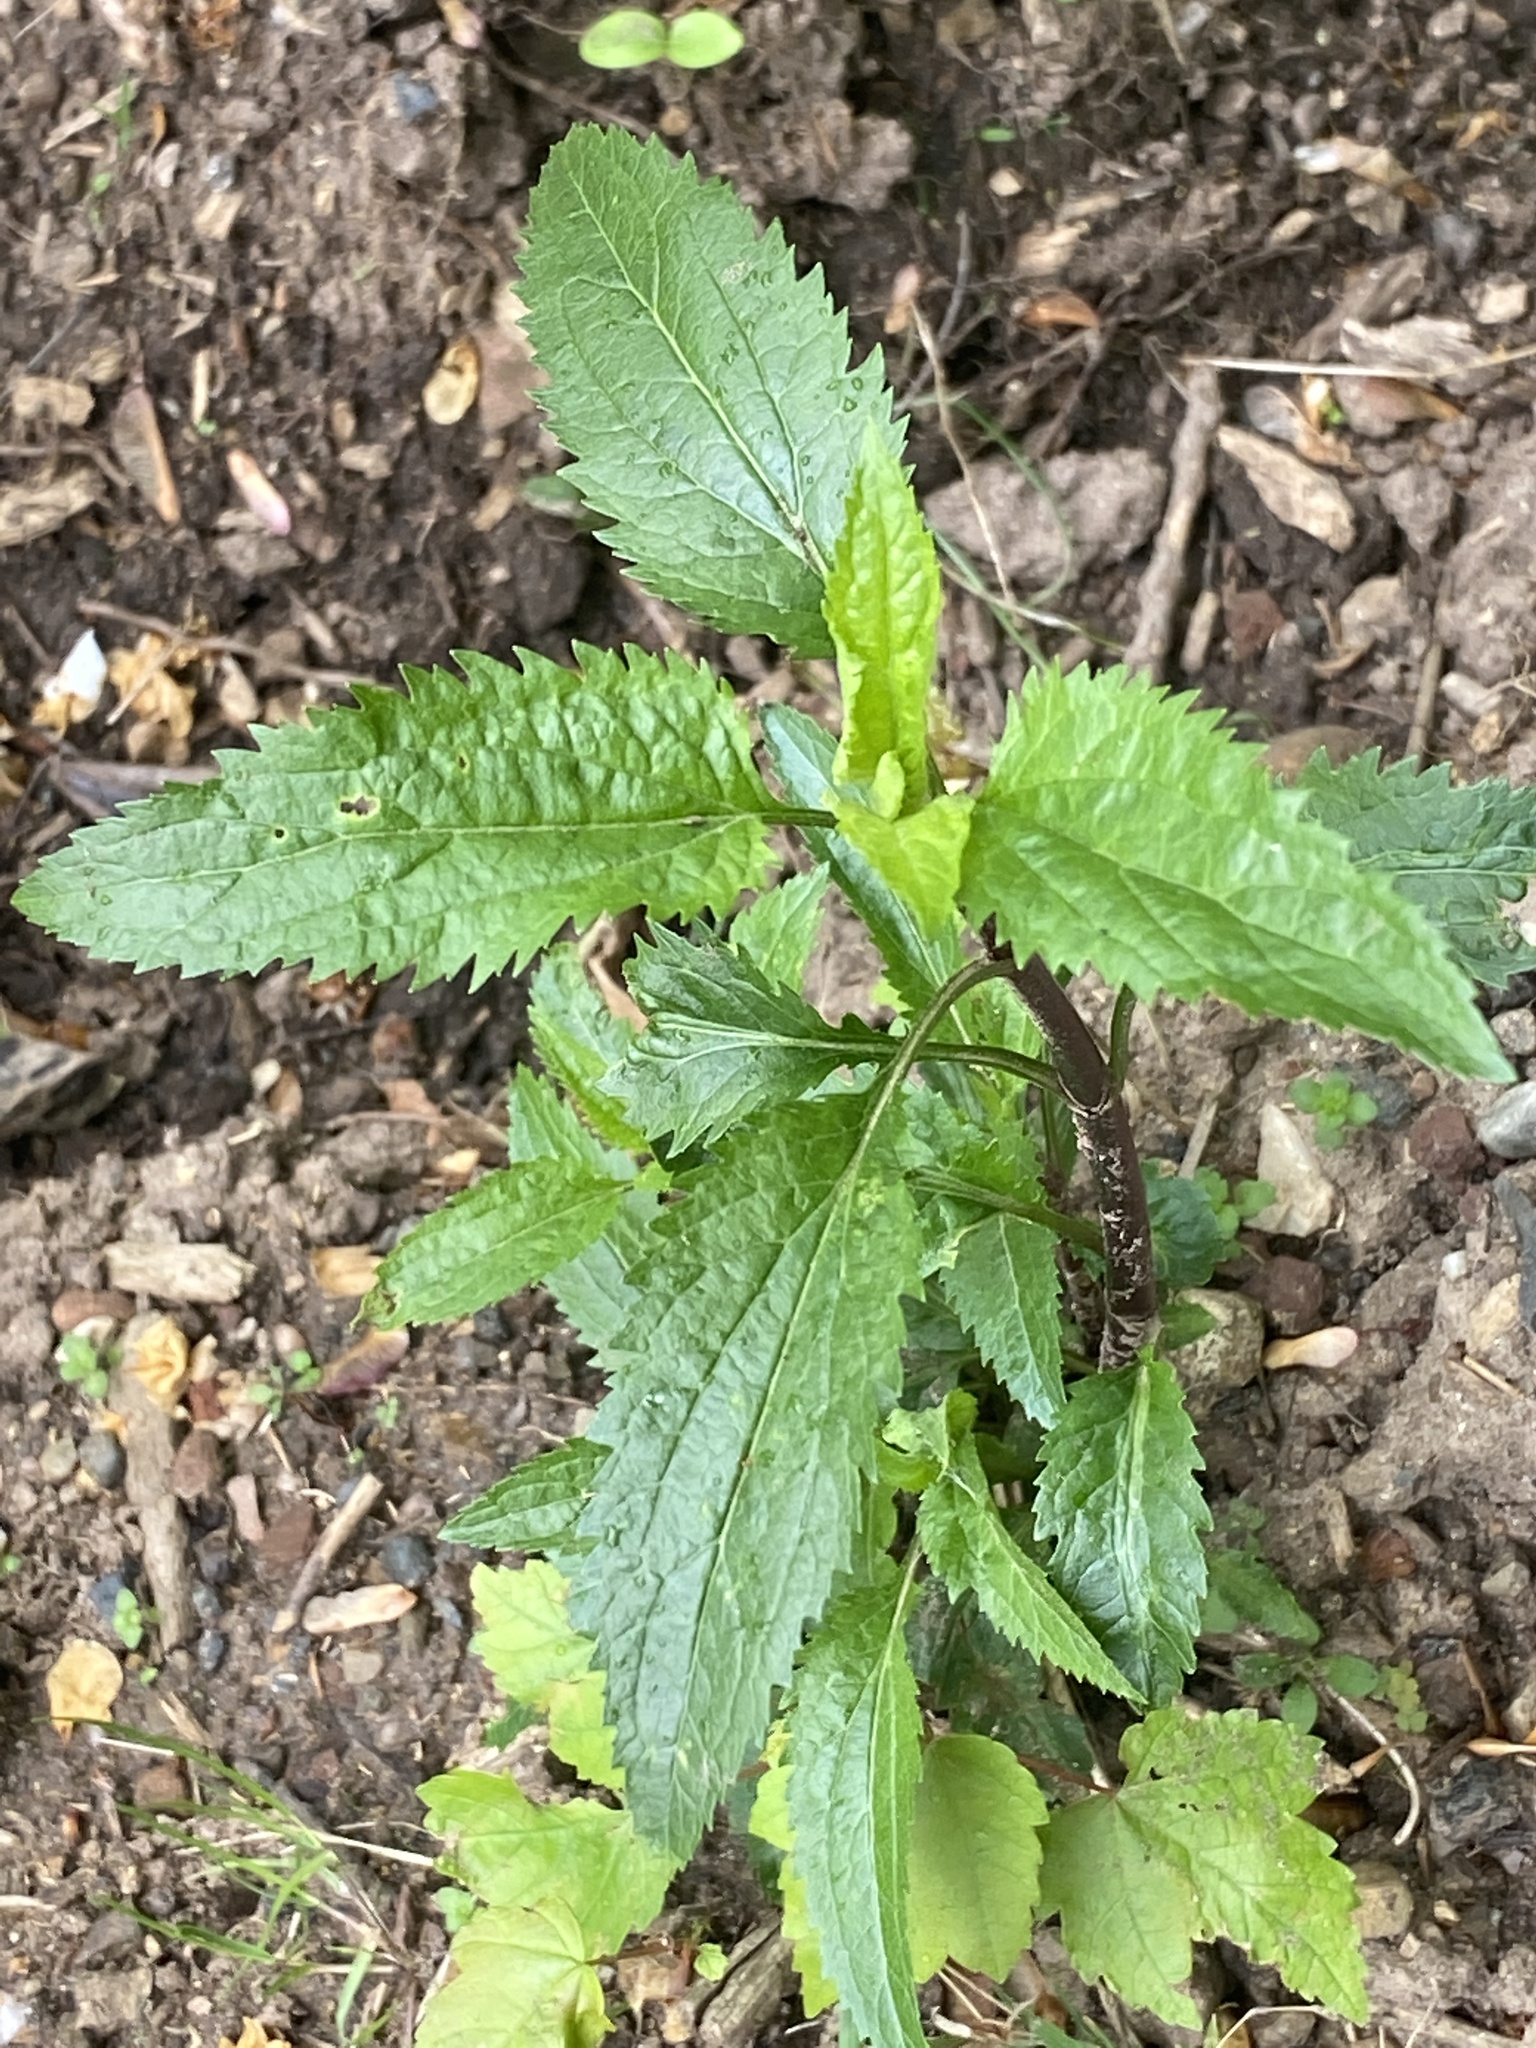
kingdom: Plantae
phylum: Tracheophyta
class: Magnoliopsida
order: Asterales
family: Asteraceae
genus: Eupatorium
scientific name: Eupatorium serotinum
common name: Late boneset
